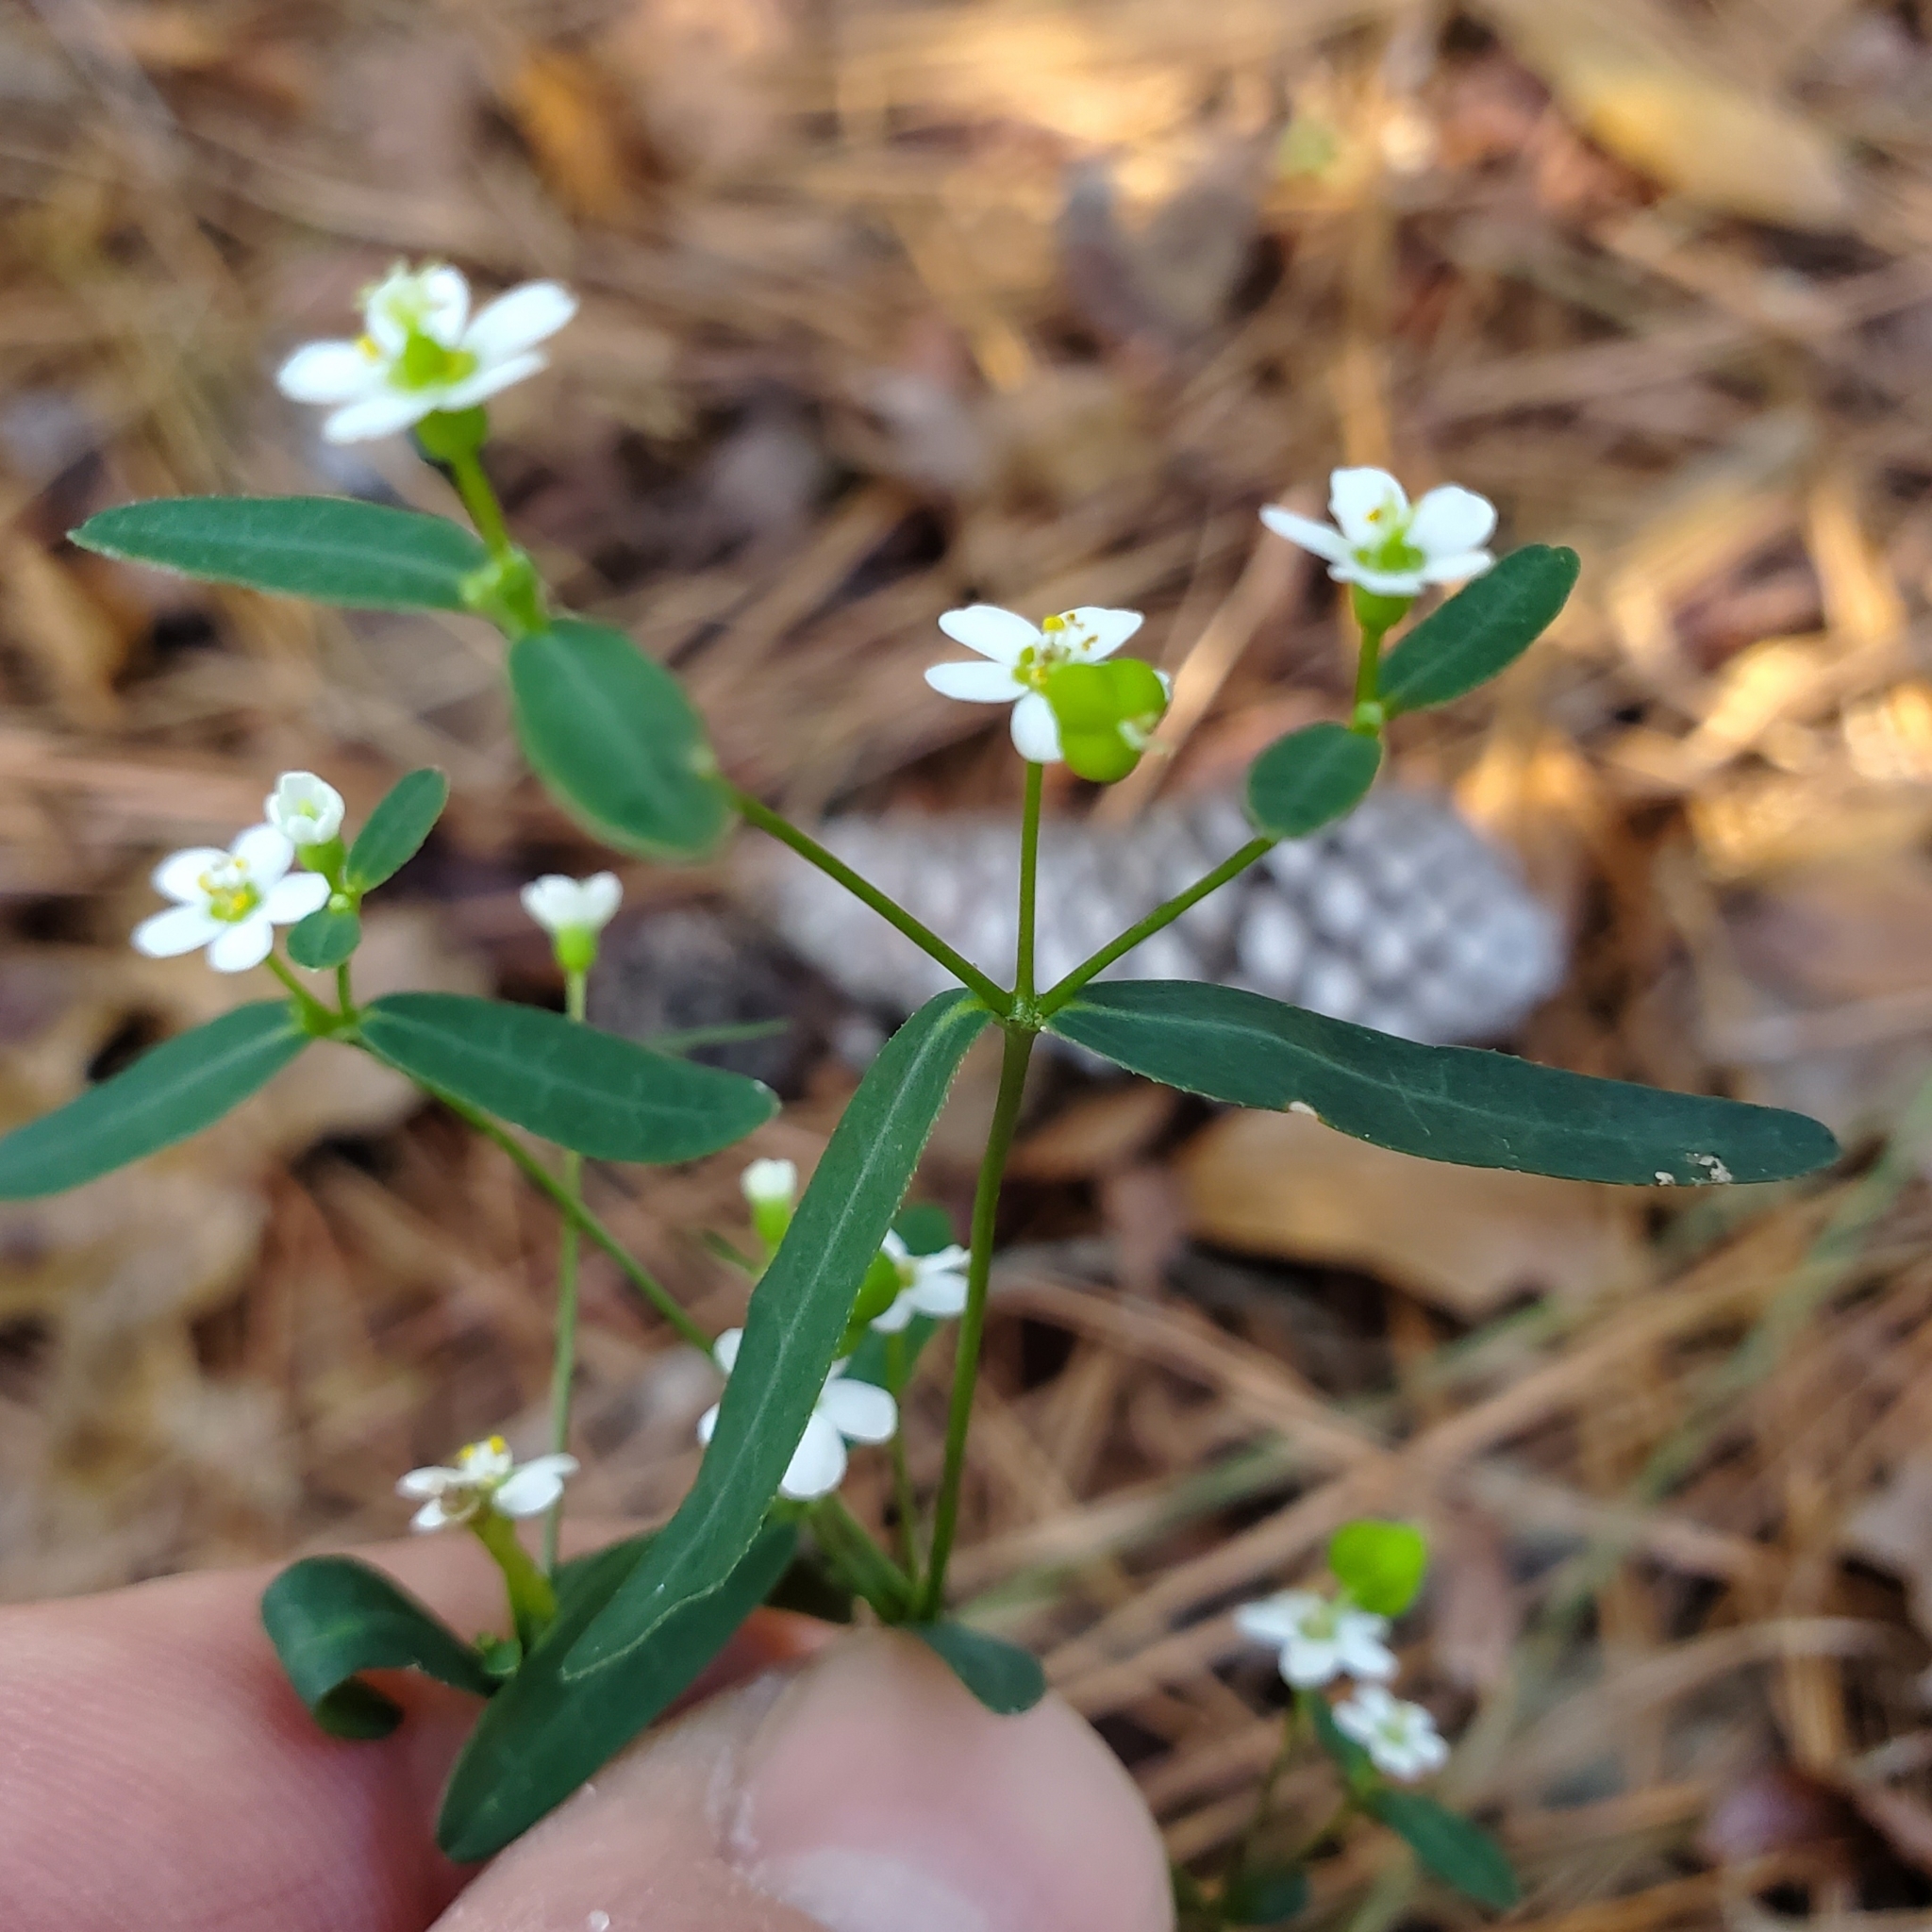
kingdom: Plantae
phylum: Tracheophyta
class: Magnoliopsida
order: Malpighiales
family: Euphorbiaceae
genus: Euphorbia
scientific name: Euphorbia corollata
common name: Flowering spurge
